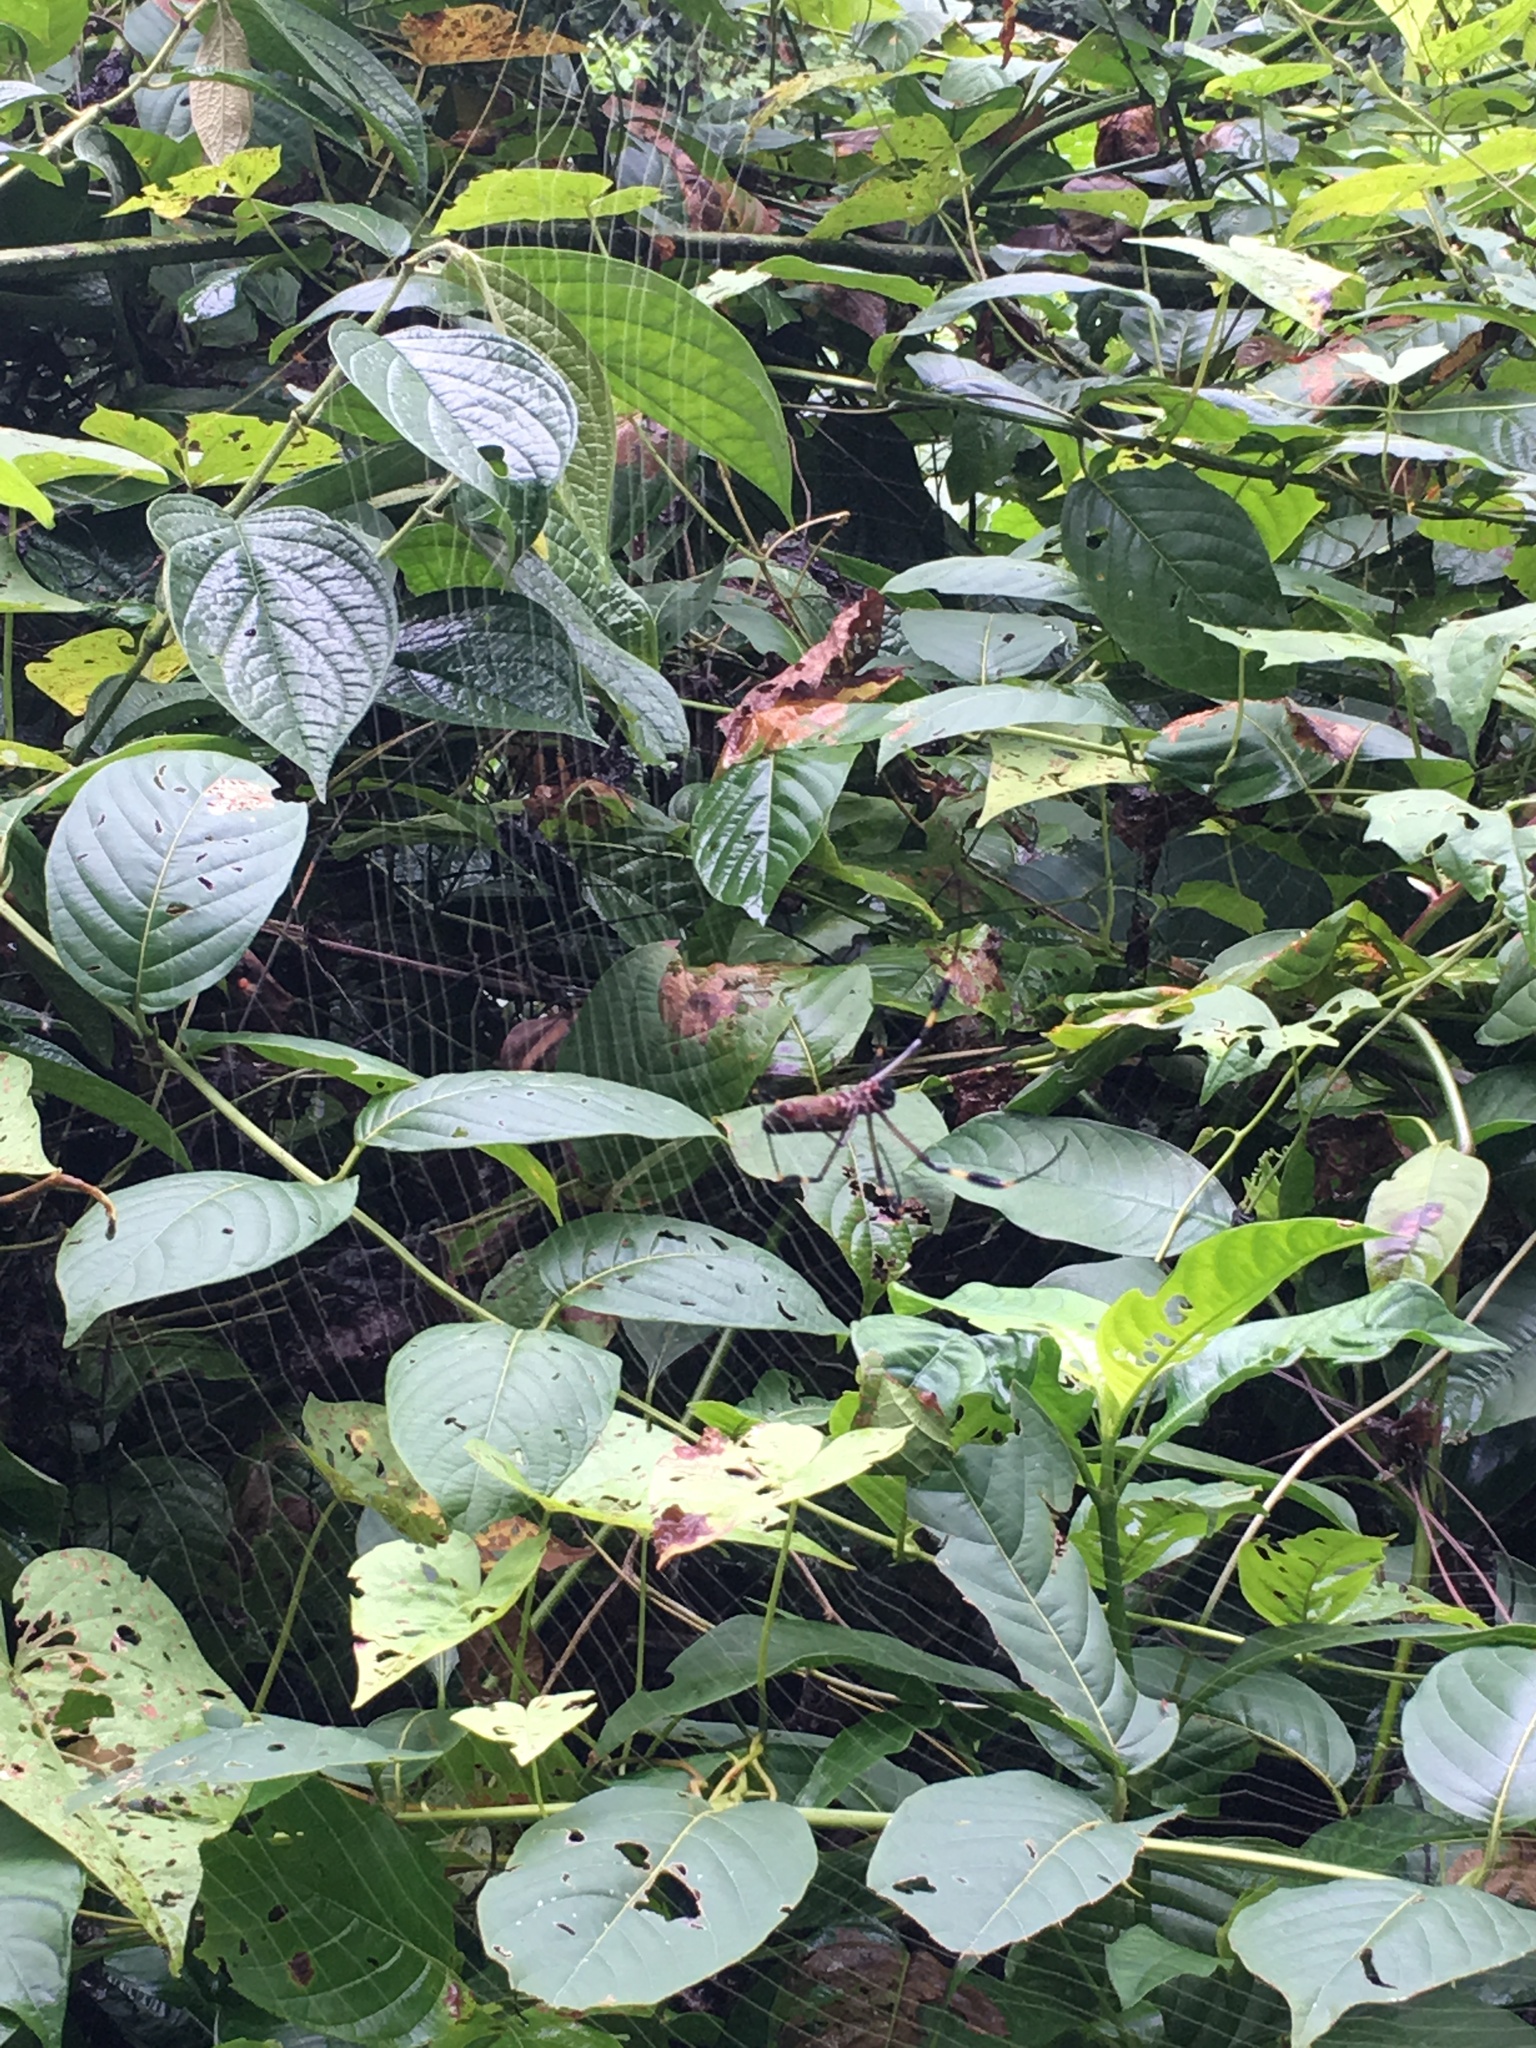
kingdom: Animalia
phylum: Arthropoda
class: Arachnida
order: Araneae
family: Araneidae
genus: Trichonephila
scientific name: Trichonephila clavipes
